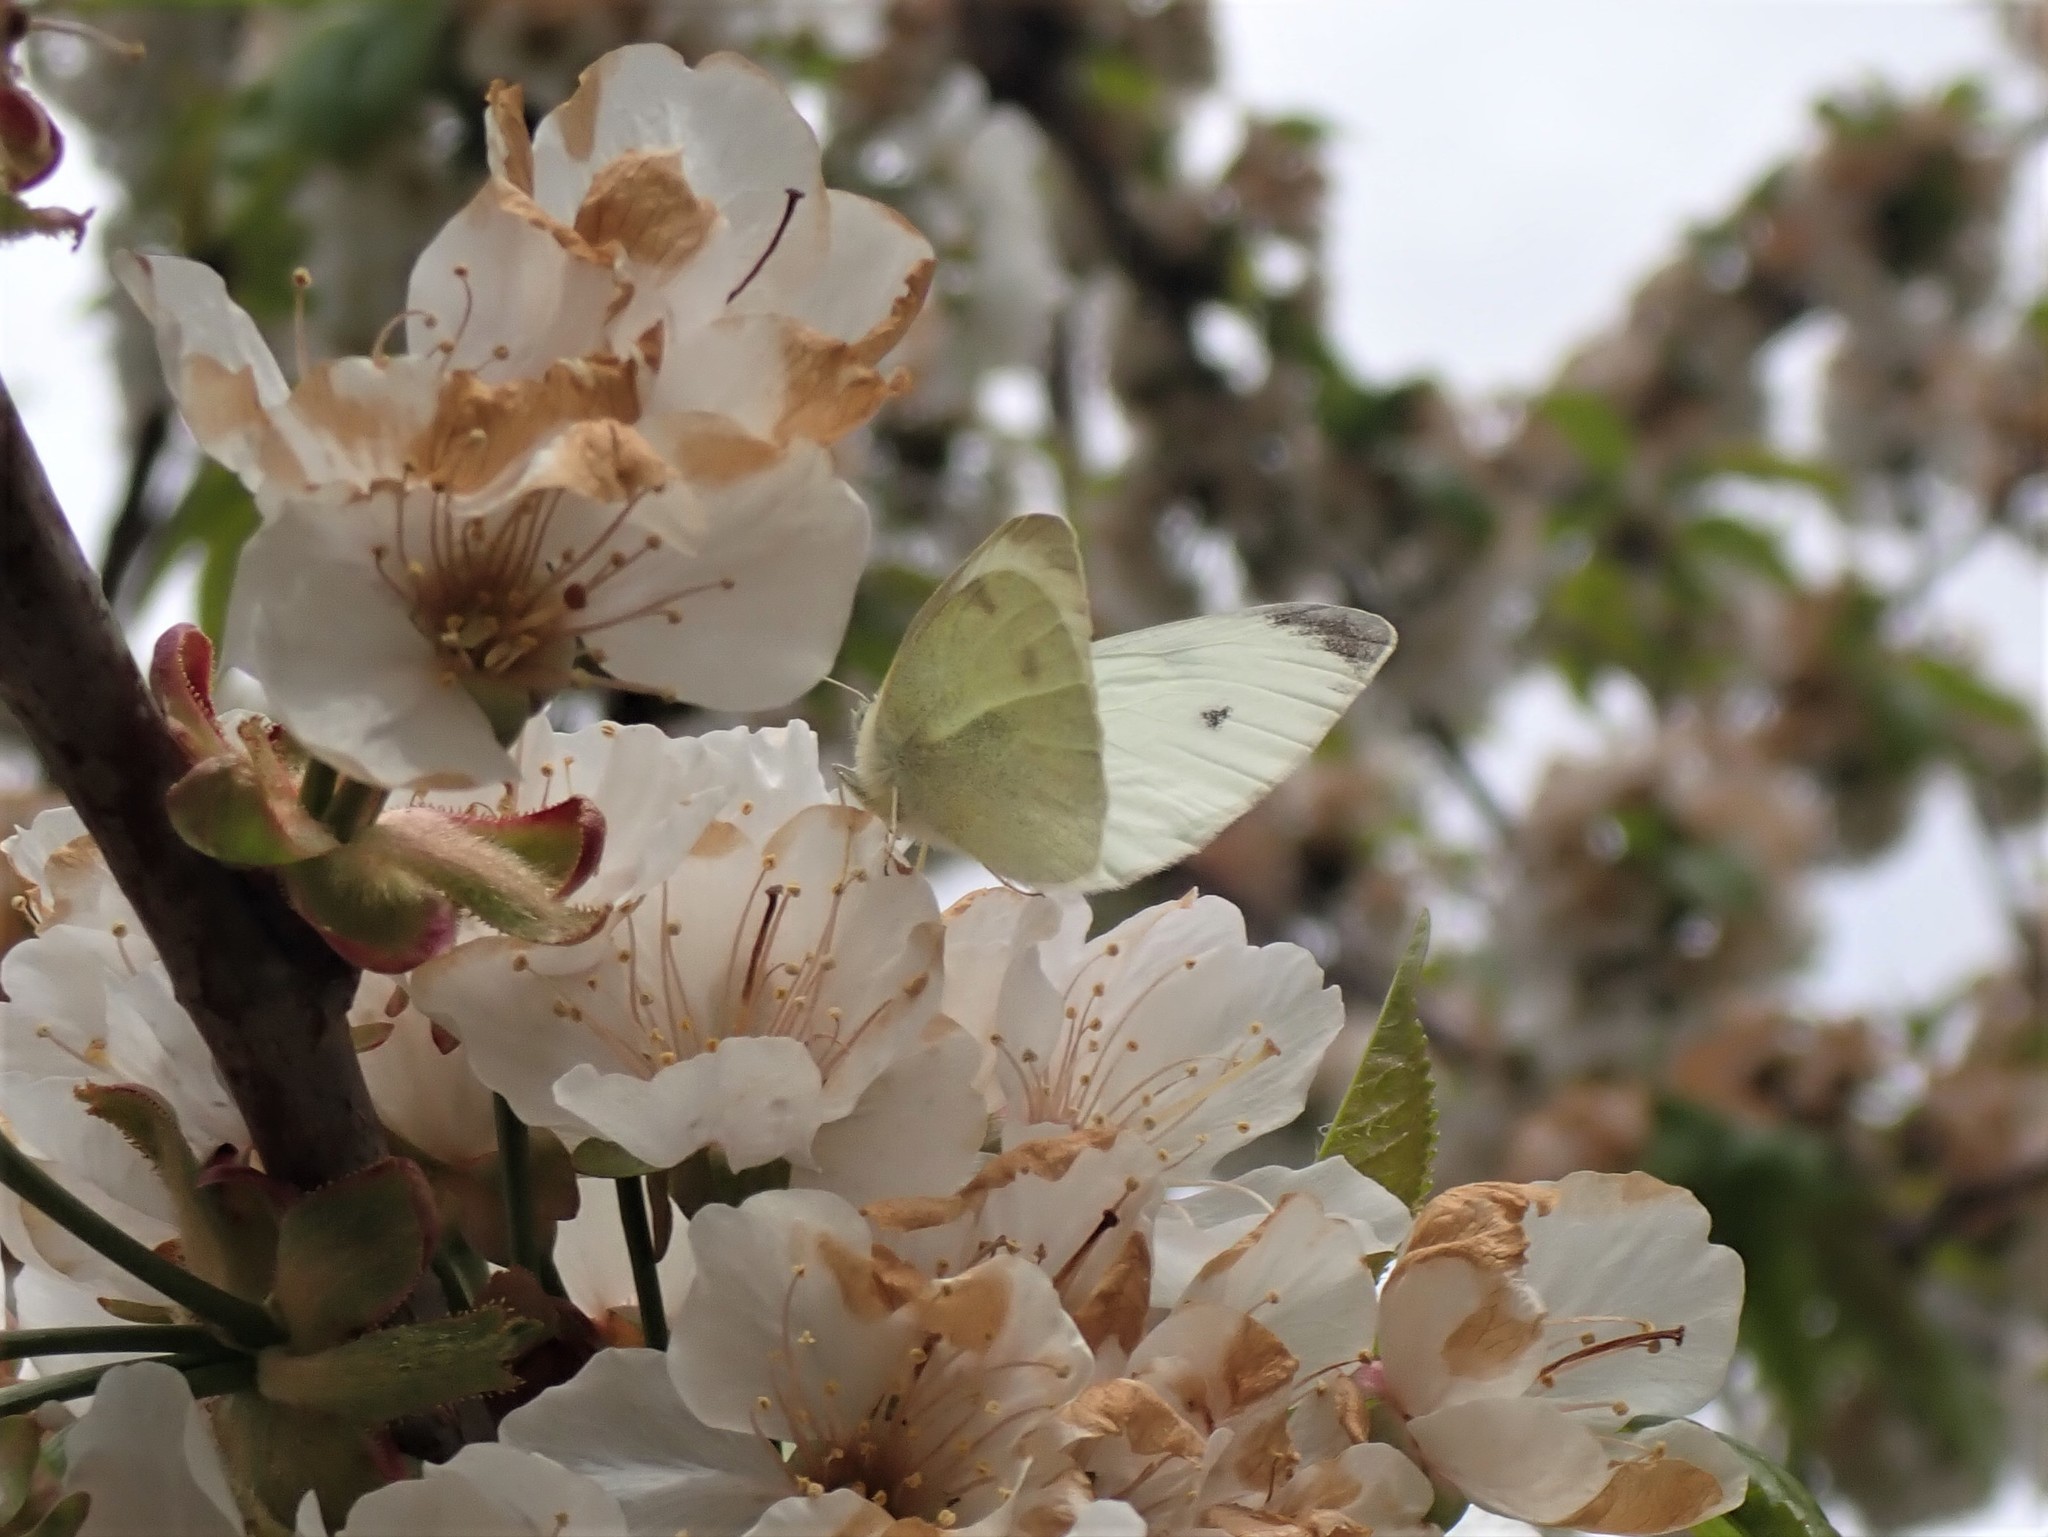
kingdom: Animalia
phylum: Arthropoda
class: Insecta
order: Lepidoptera
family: Pieridae
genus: Pieris
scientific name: Pieris rapae
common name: Small white
